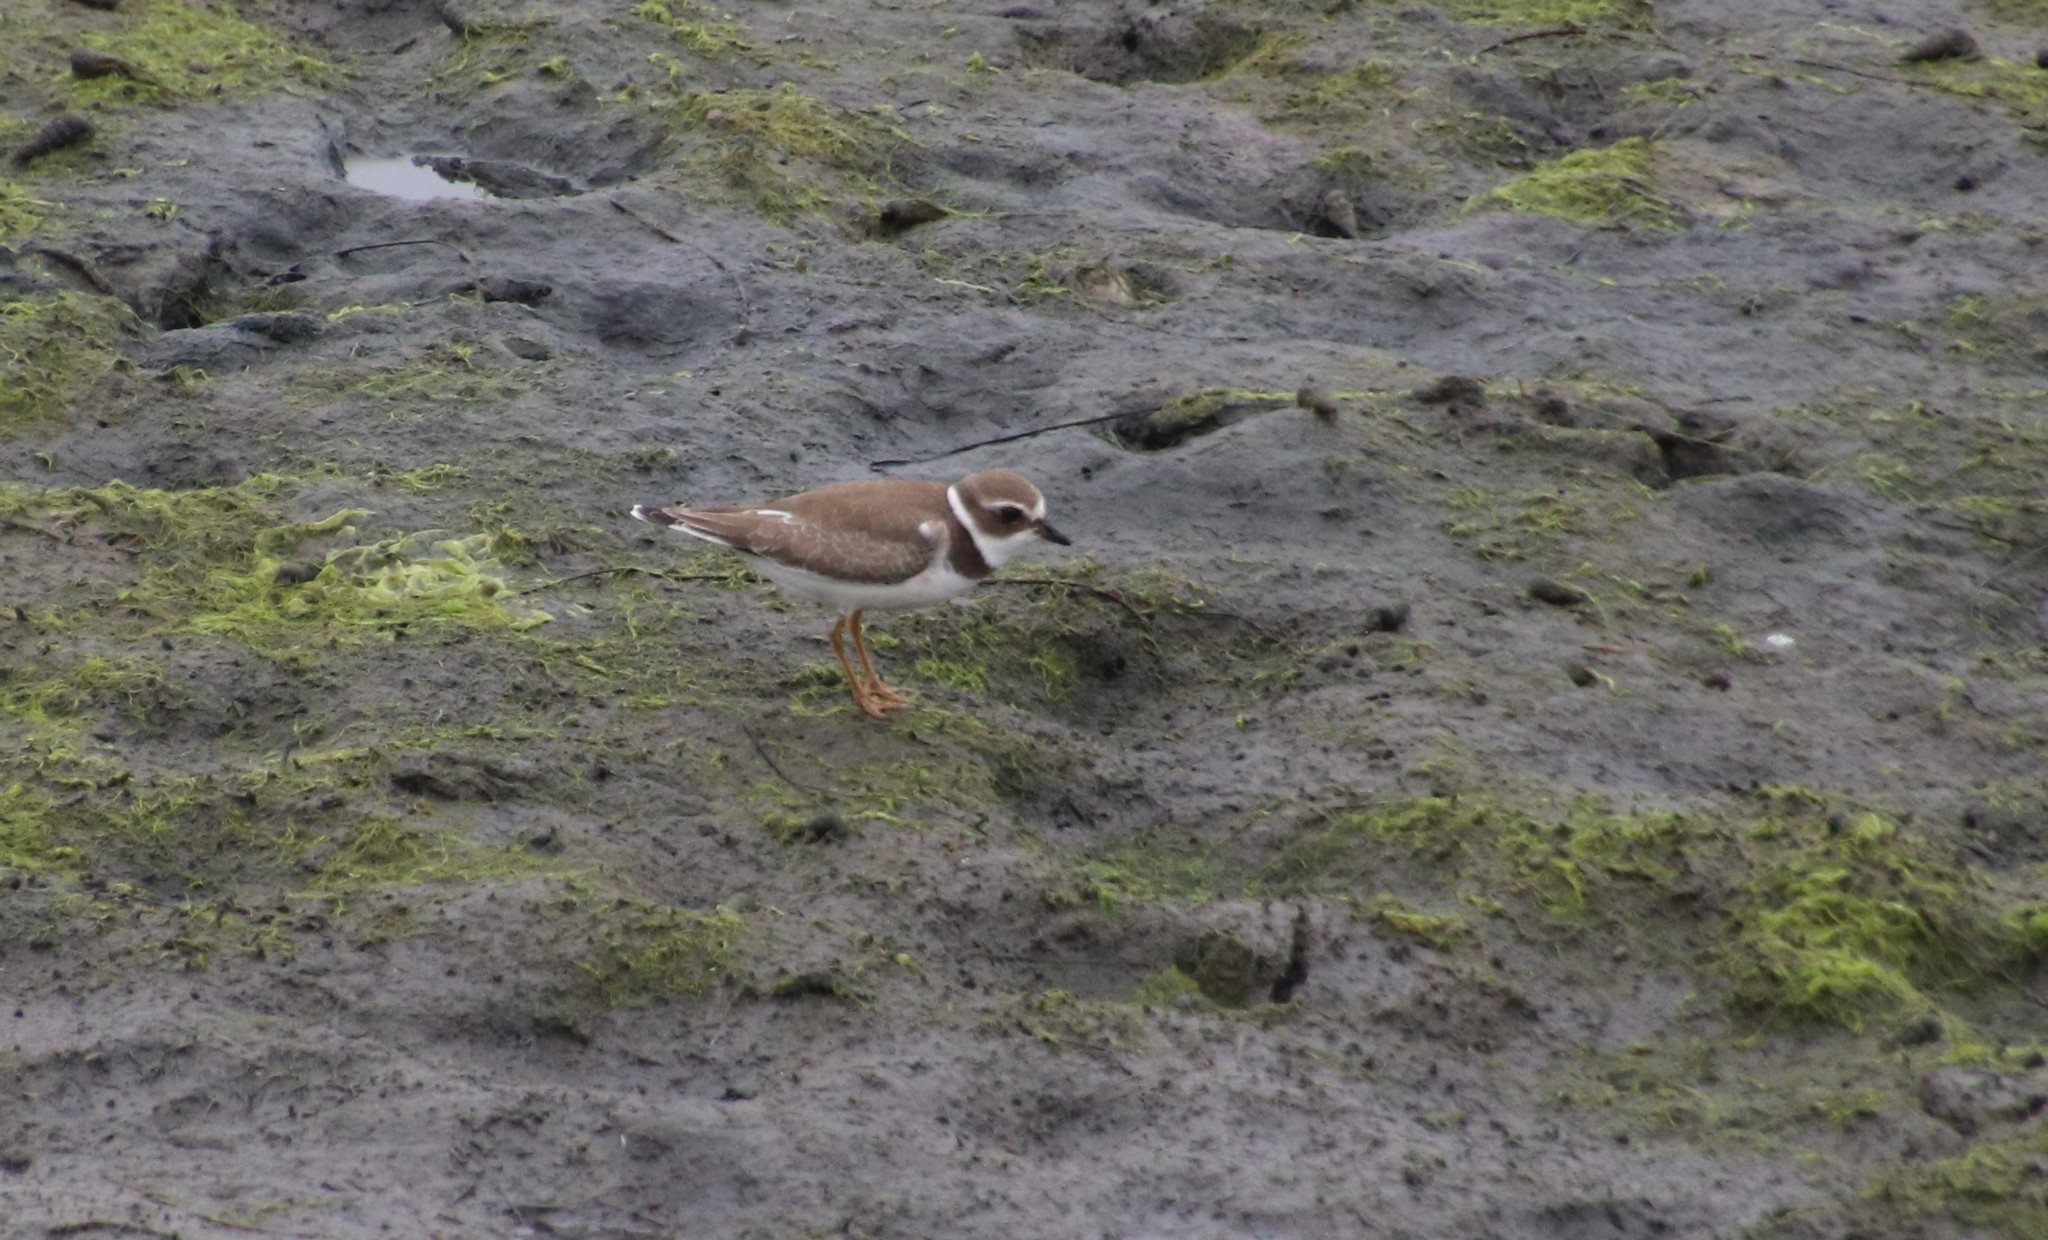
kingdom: Animalia
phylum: Chordata
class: Aves
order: Charadriiformes
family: Charadriidae
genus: Charadrius
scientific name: Charadrius semipalmatus
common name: Semipalmated plover
